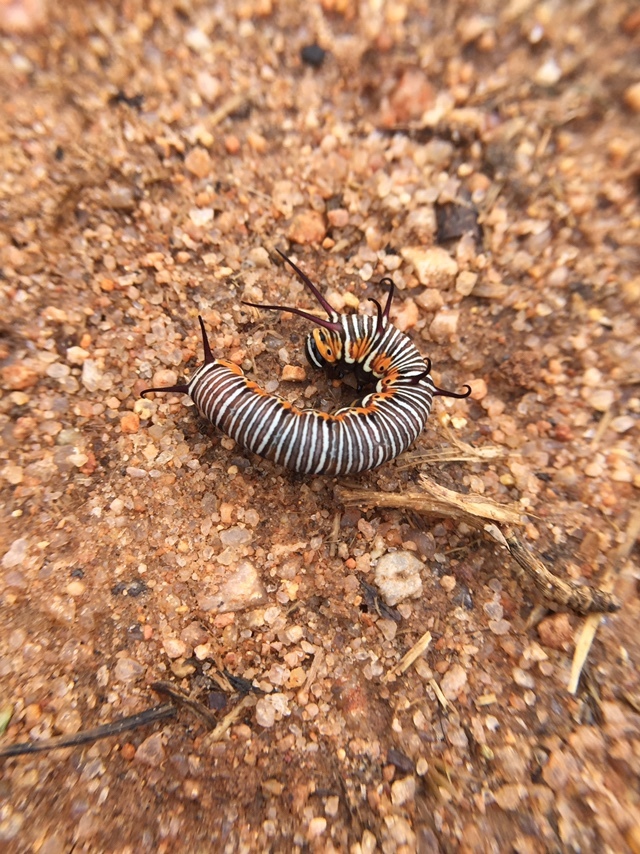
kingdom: Animalia
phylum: Arthropoda
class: Insecta
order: Lepidoptera
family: Nymphalidae
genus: Euploea
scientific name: Euploea core
